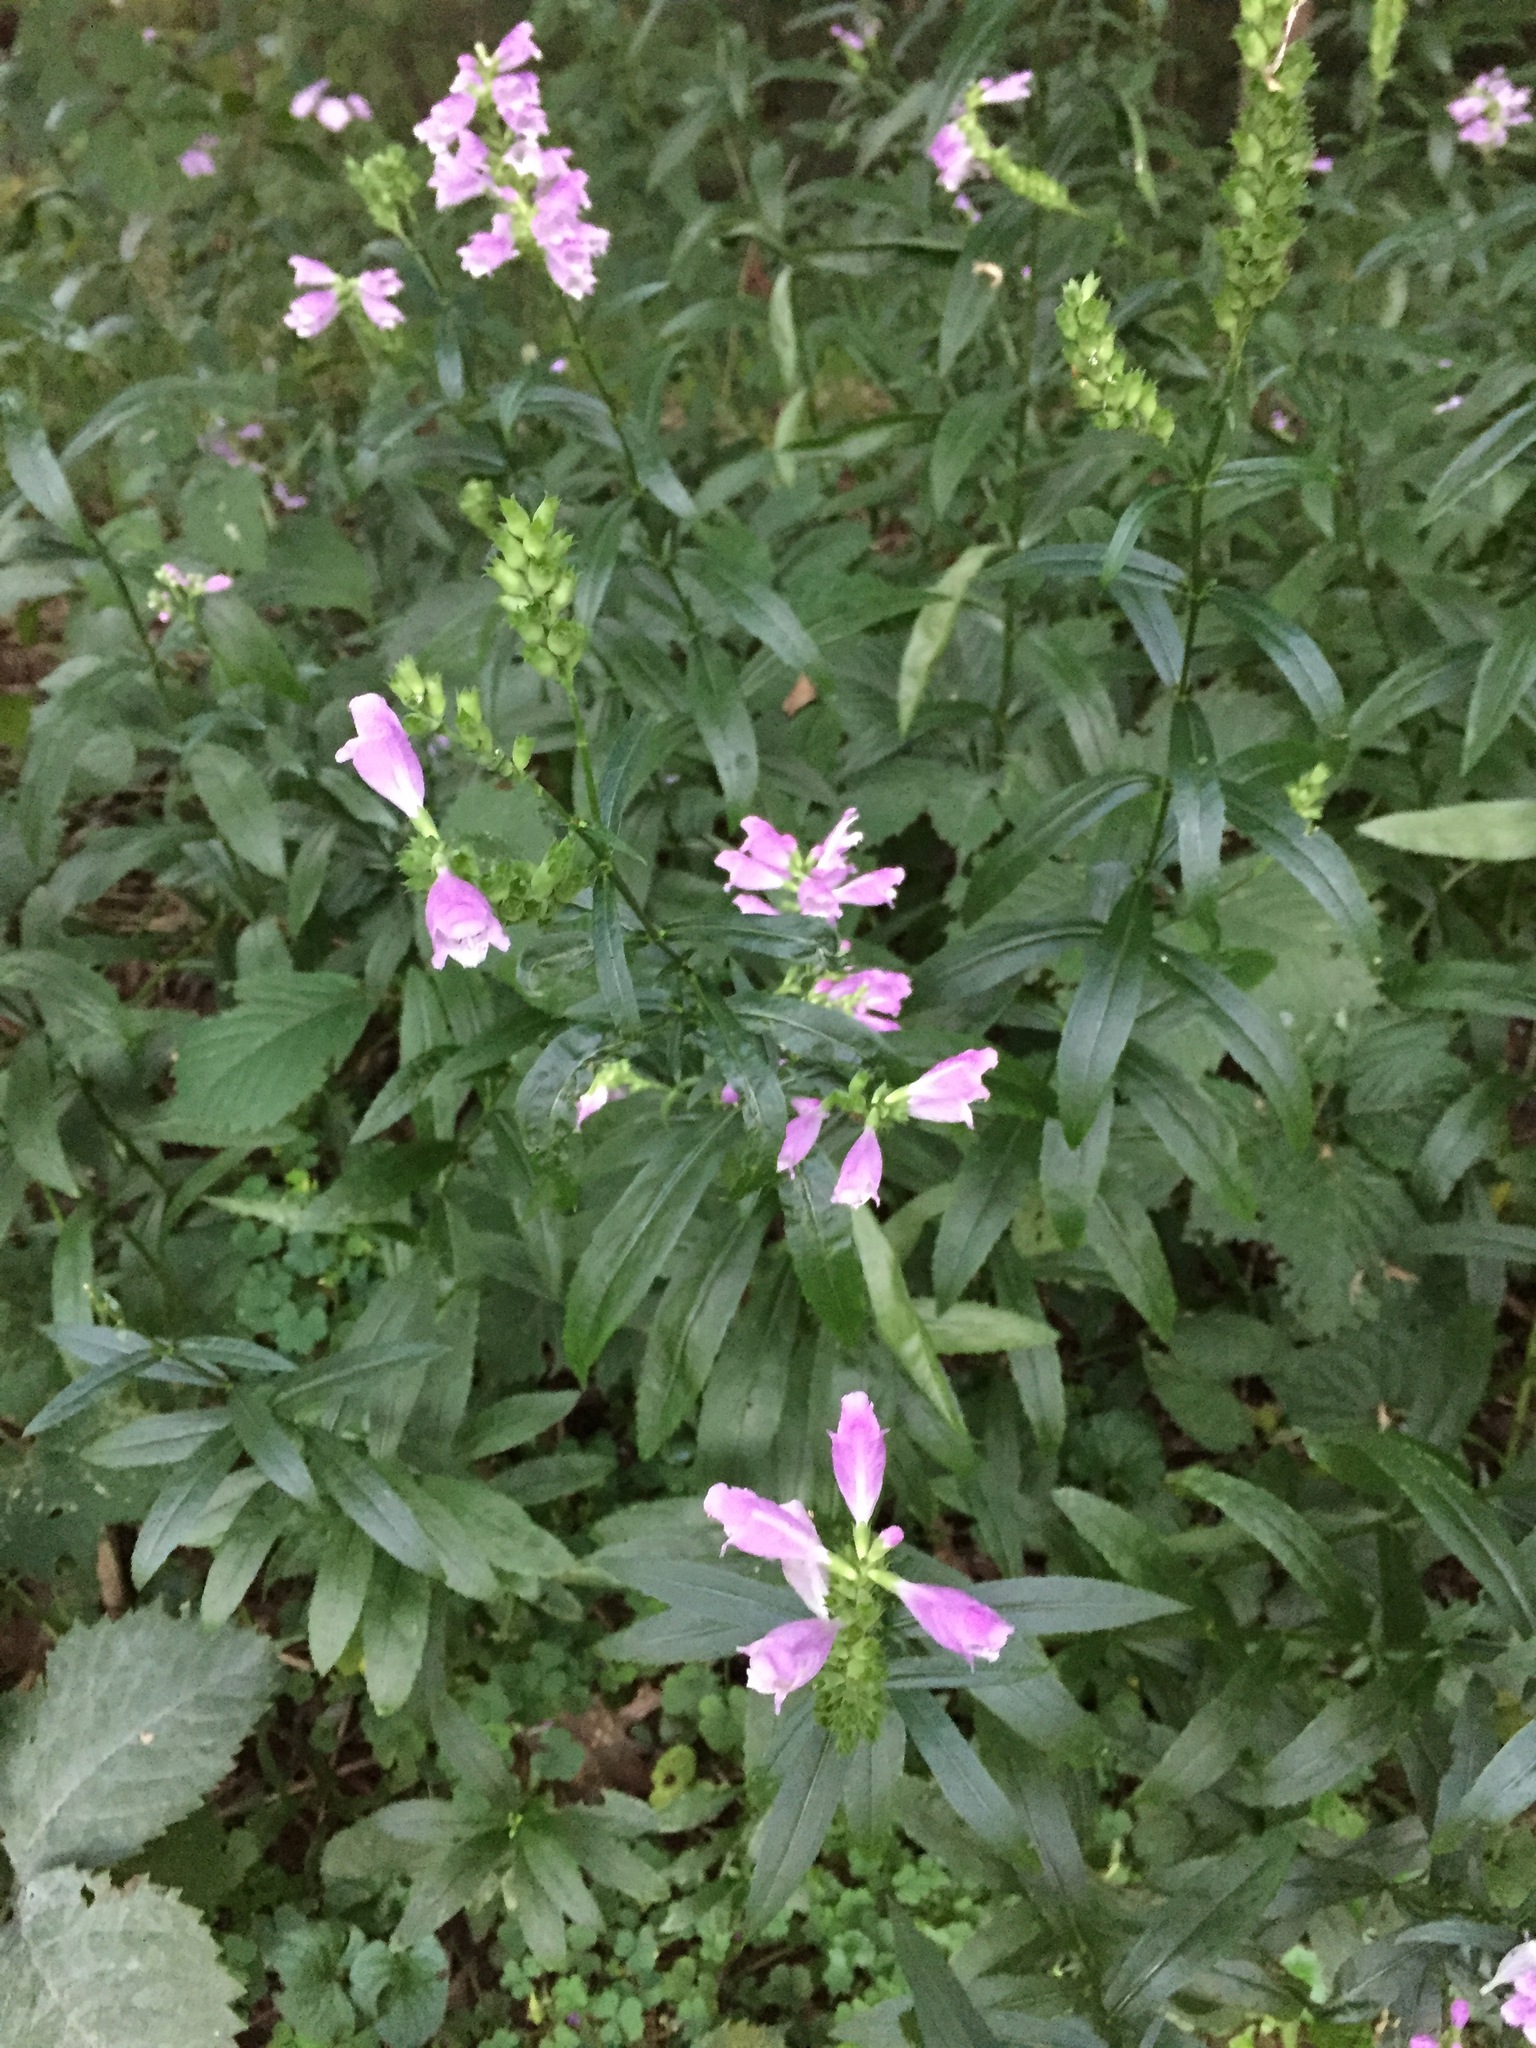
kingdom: Plantae
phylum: Tracheophyta
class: Magnoliopsida
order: Lamiales
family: Plantaginaceae
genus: Chelone
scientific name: Chelone lyonii
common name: Pink turtlehead
